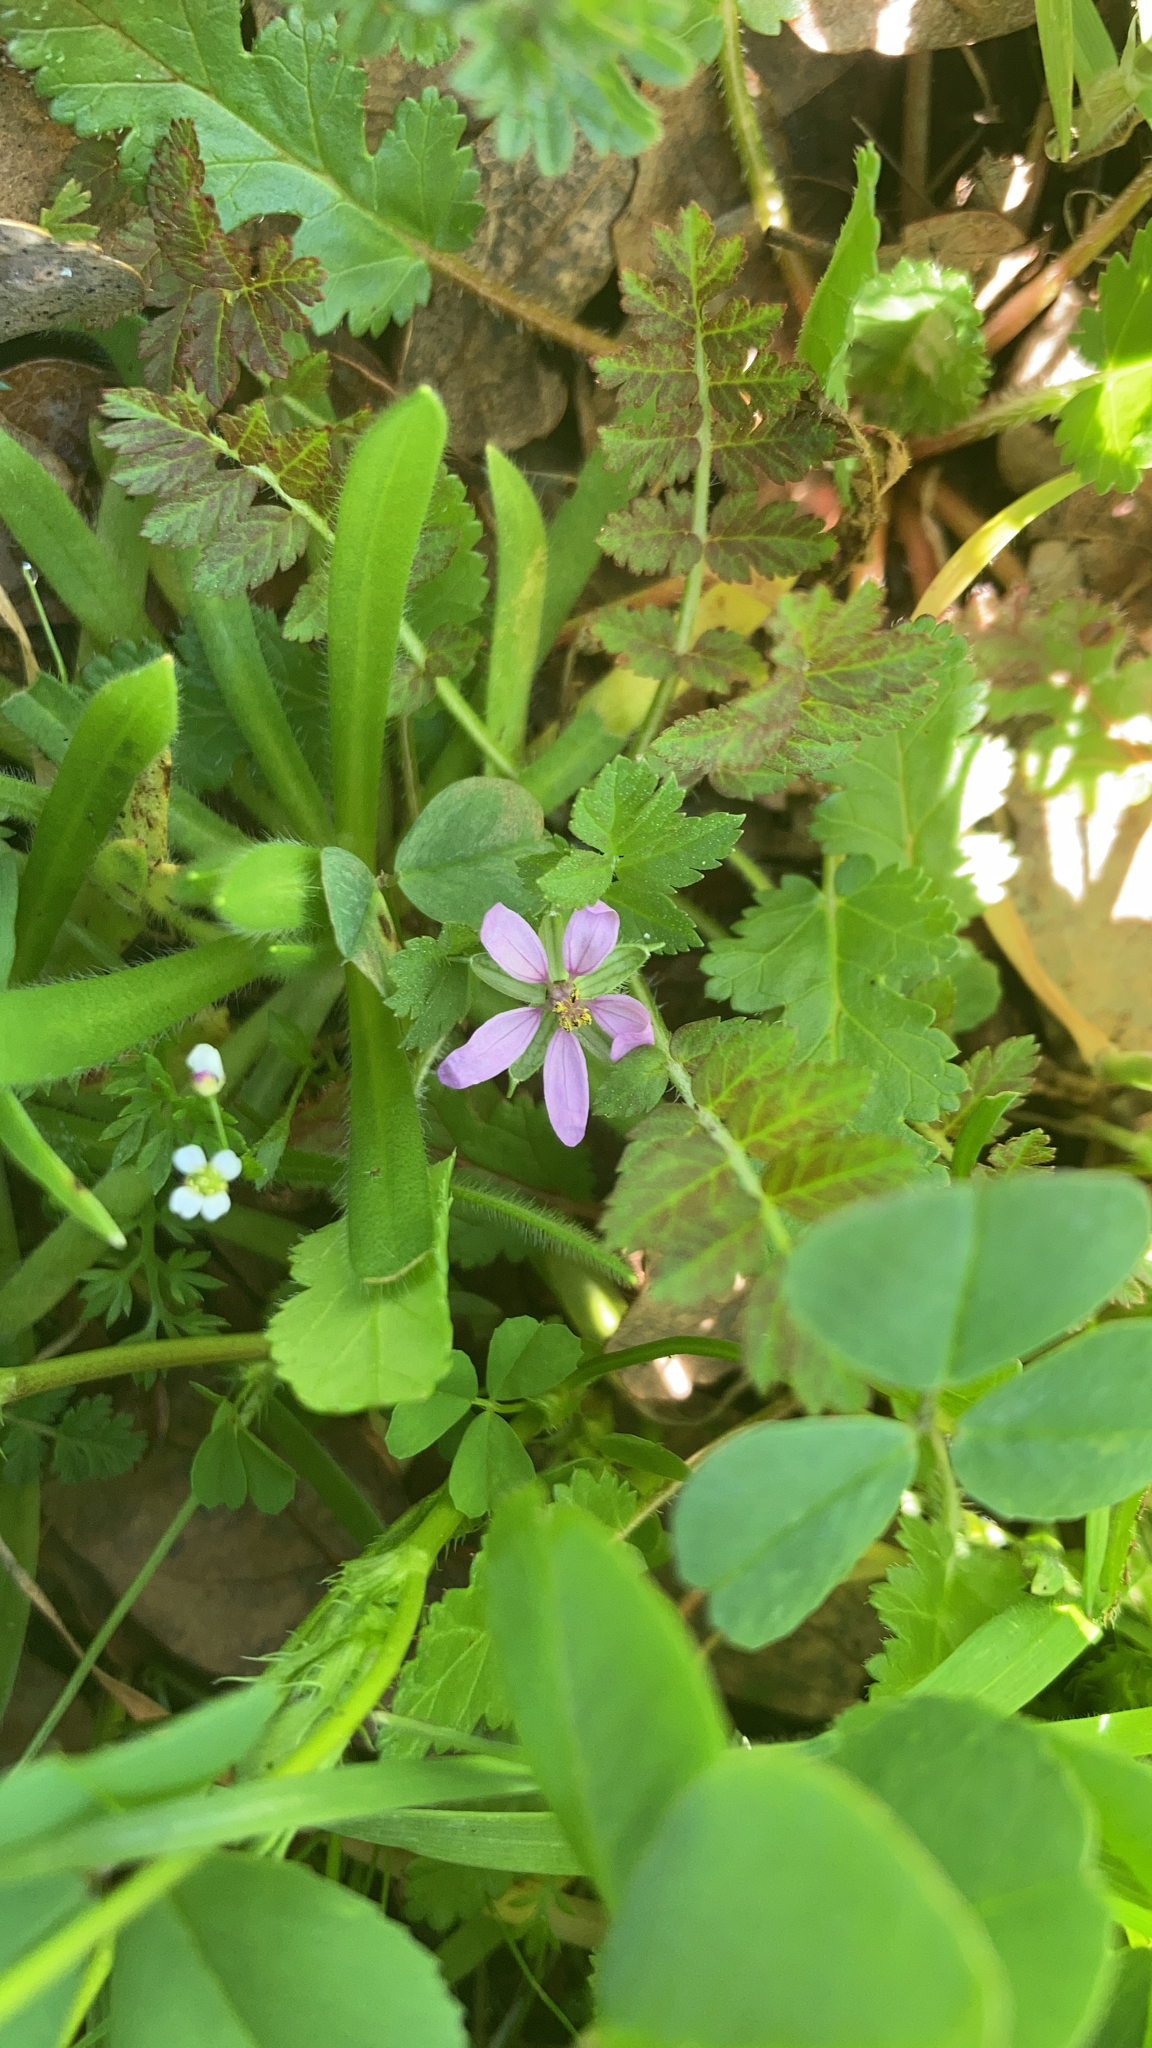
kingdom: Plantae
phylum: Tracheophyta
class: Magnoliopsida
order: Geraniales
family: Geraniaceae
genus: Erodium
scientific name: Erodium moschatum
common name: Musk stork's-bill
